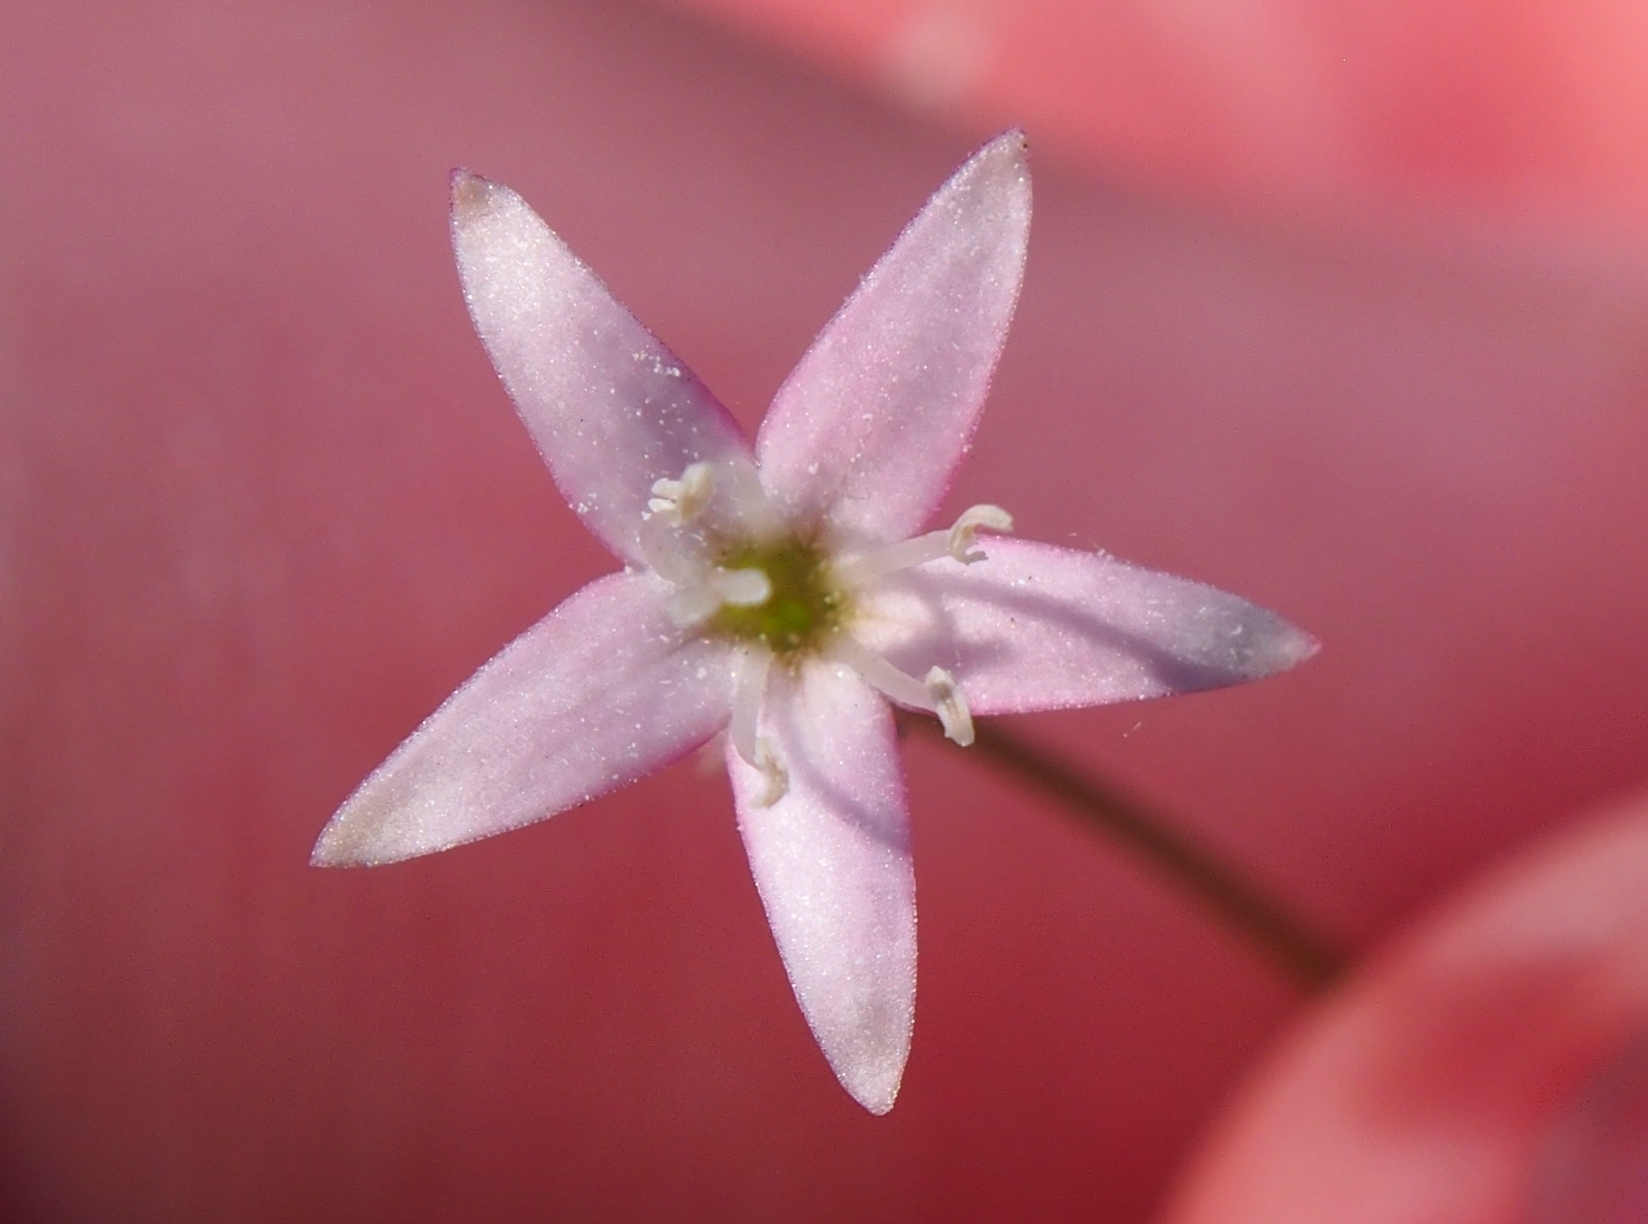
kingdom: Plantae
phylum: Tracheophyta
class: Magnoliopsida
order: Gentianales
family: Rubiaceae
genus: Kelloggia
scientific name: Kelloggia galioides
